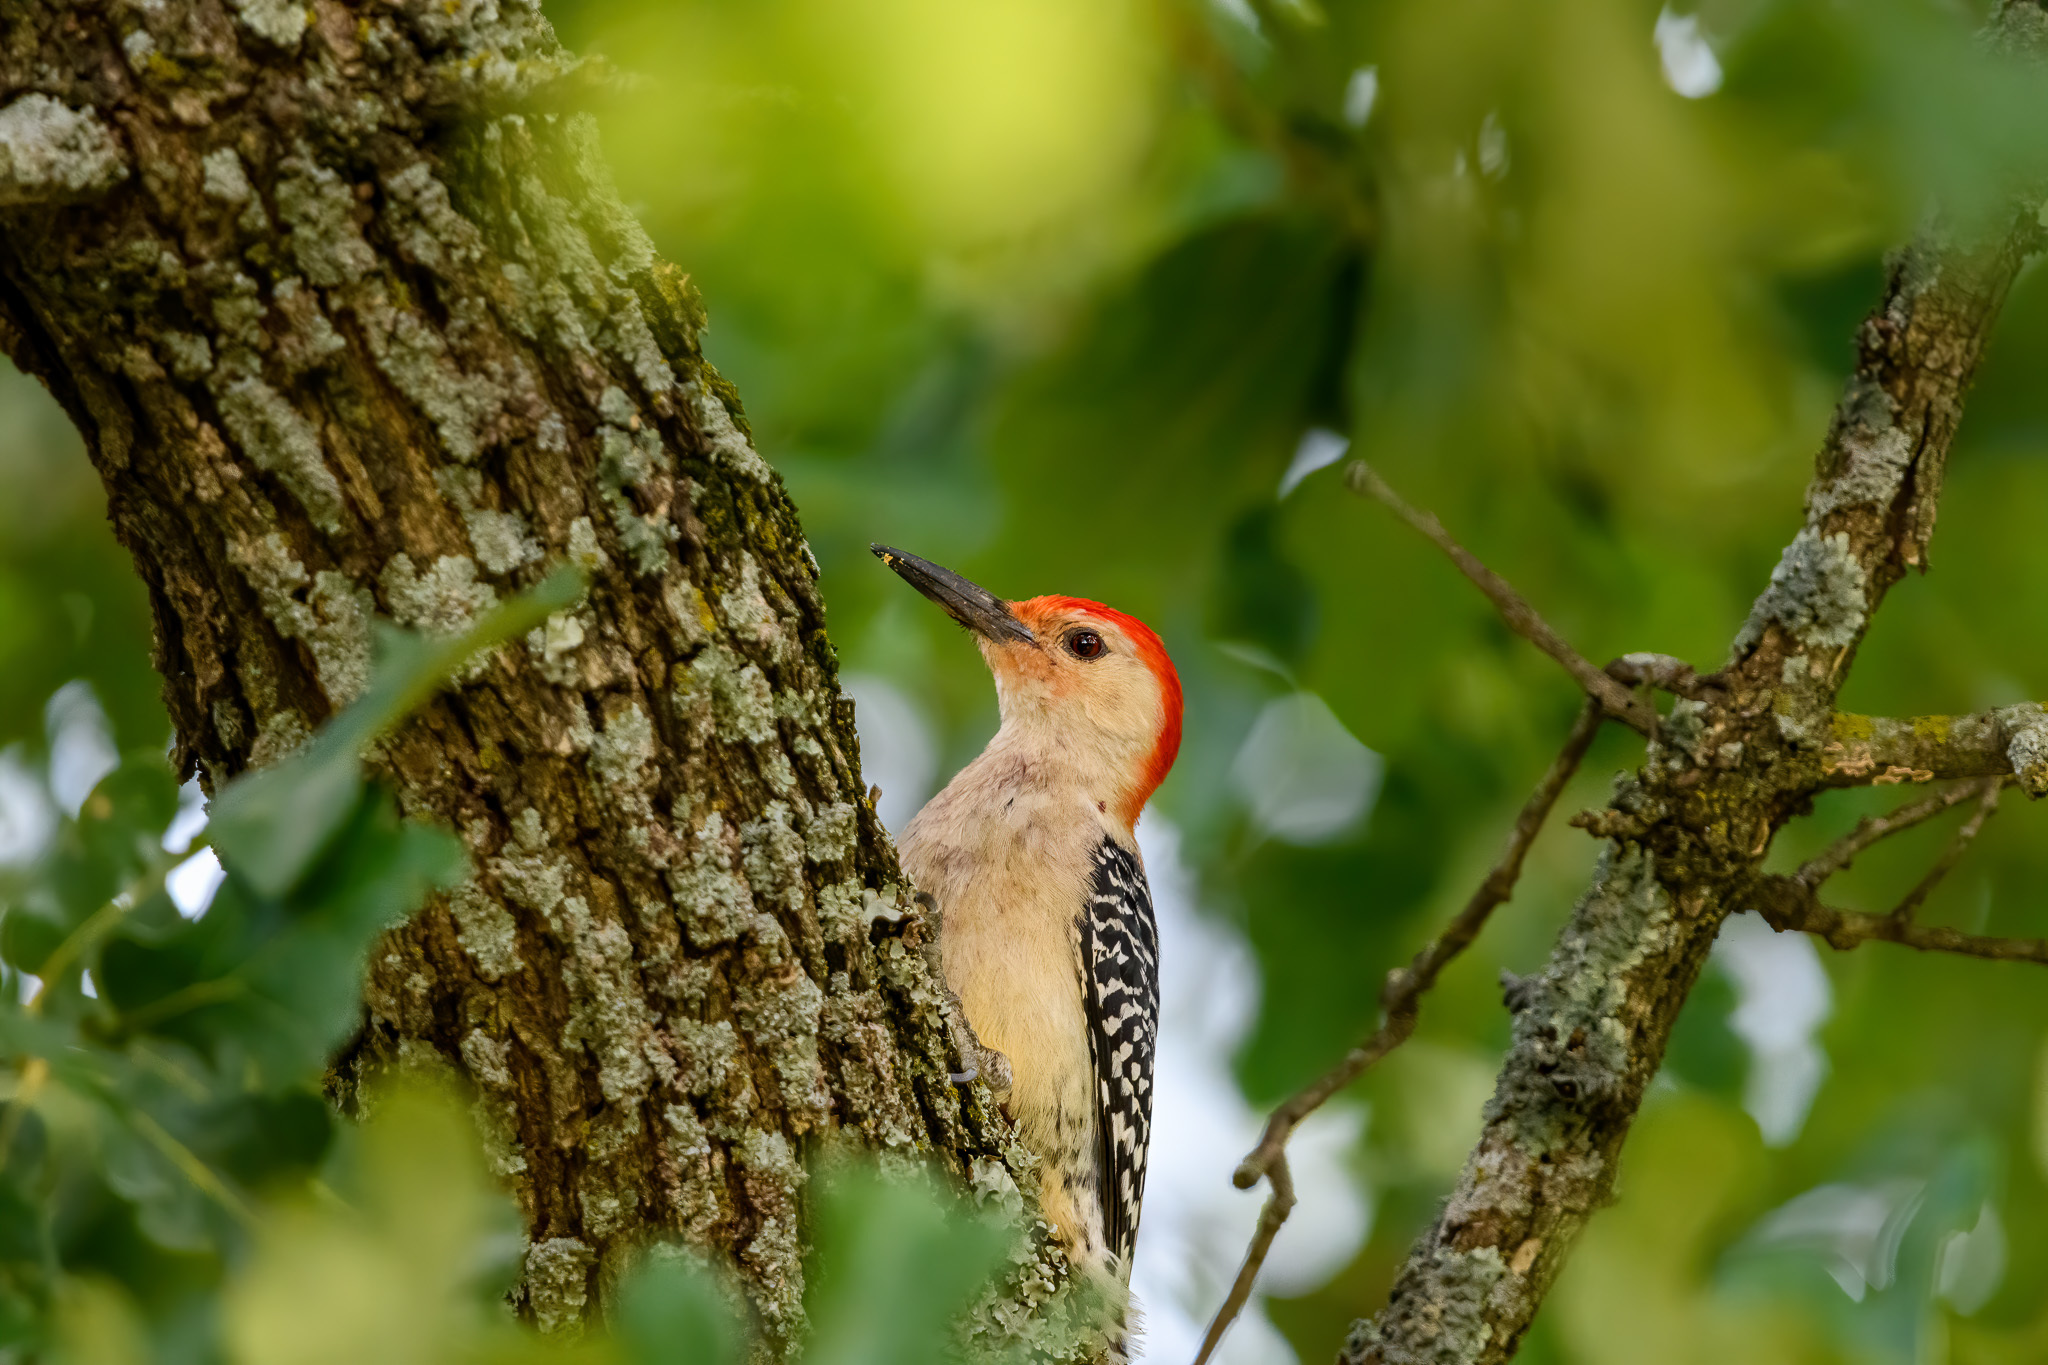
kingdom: Animalia
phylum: Chordata
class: Aves
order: Piciformes
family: Picidae
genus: Melanerpes
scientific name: Melanerpes carolinus
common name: Red-bellied woodpecker
